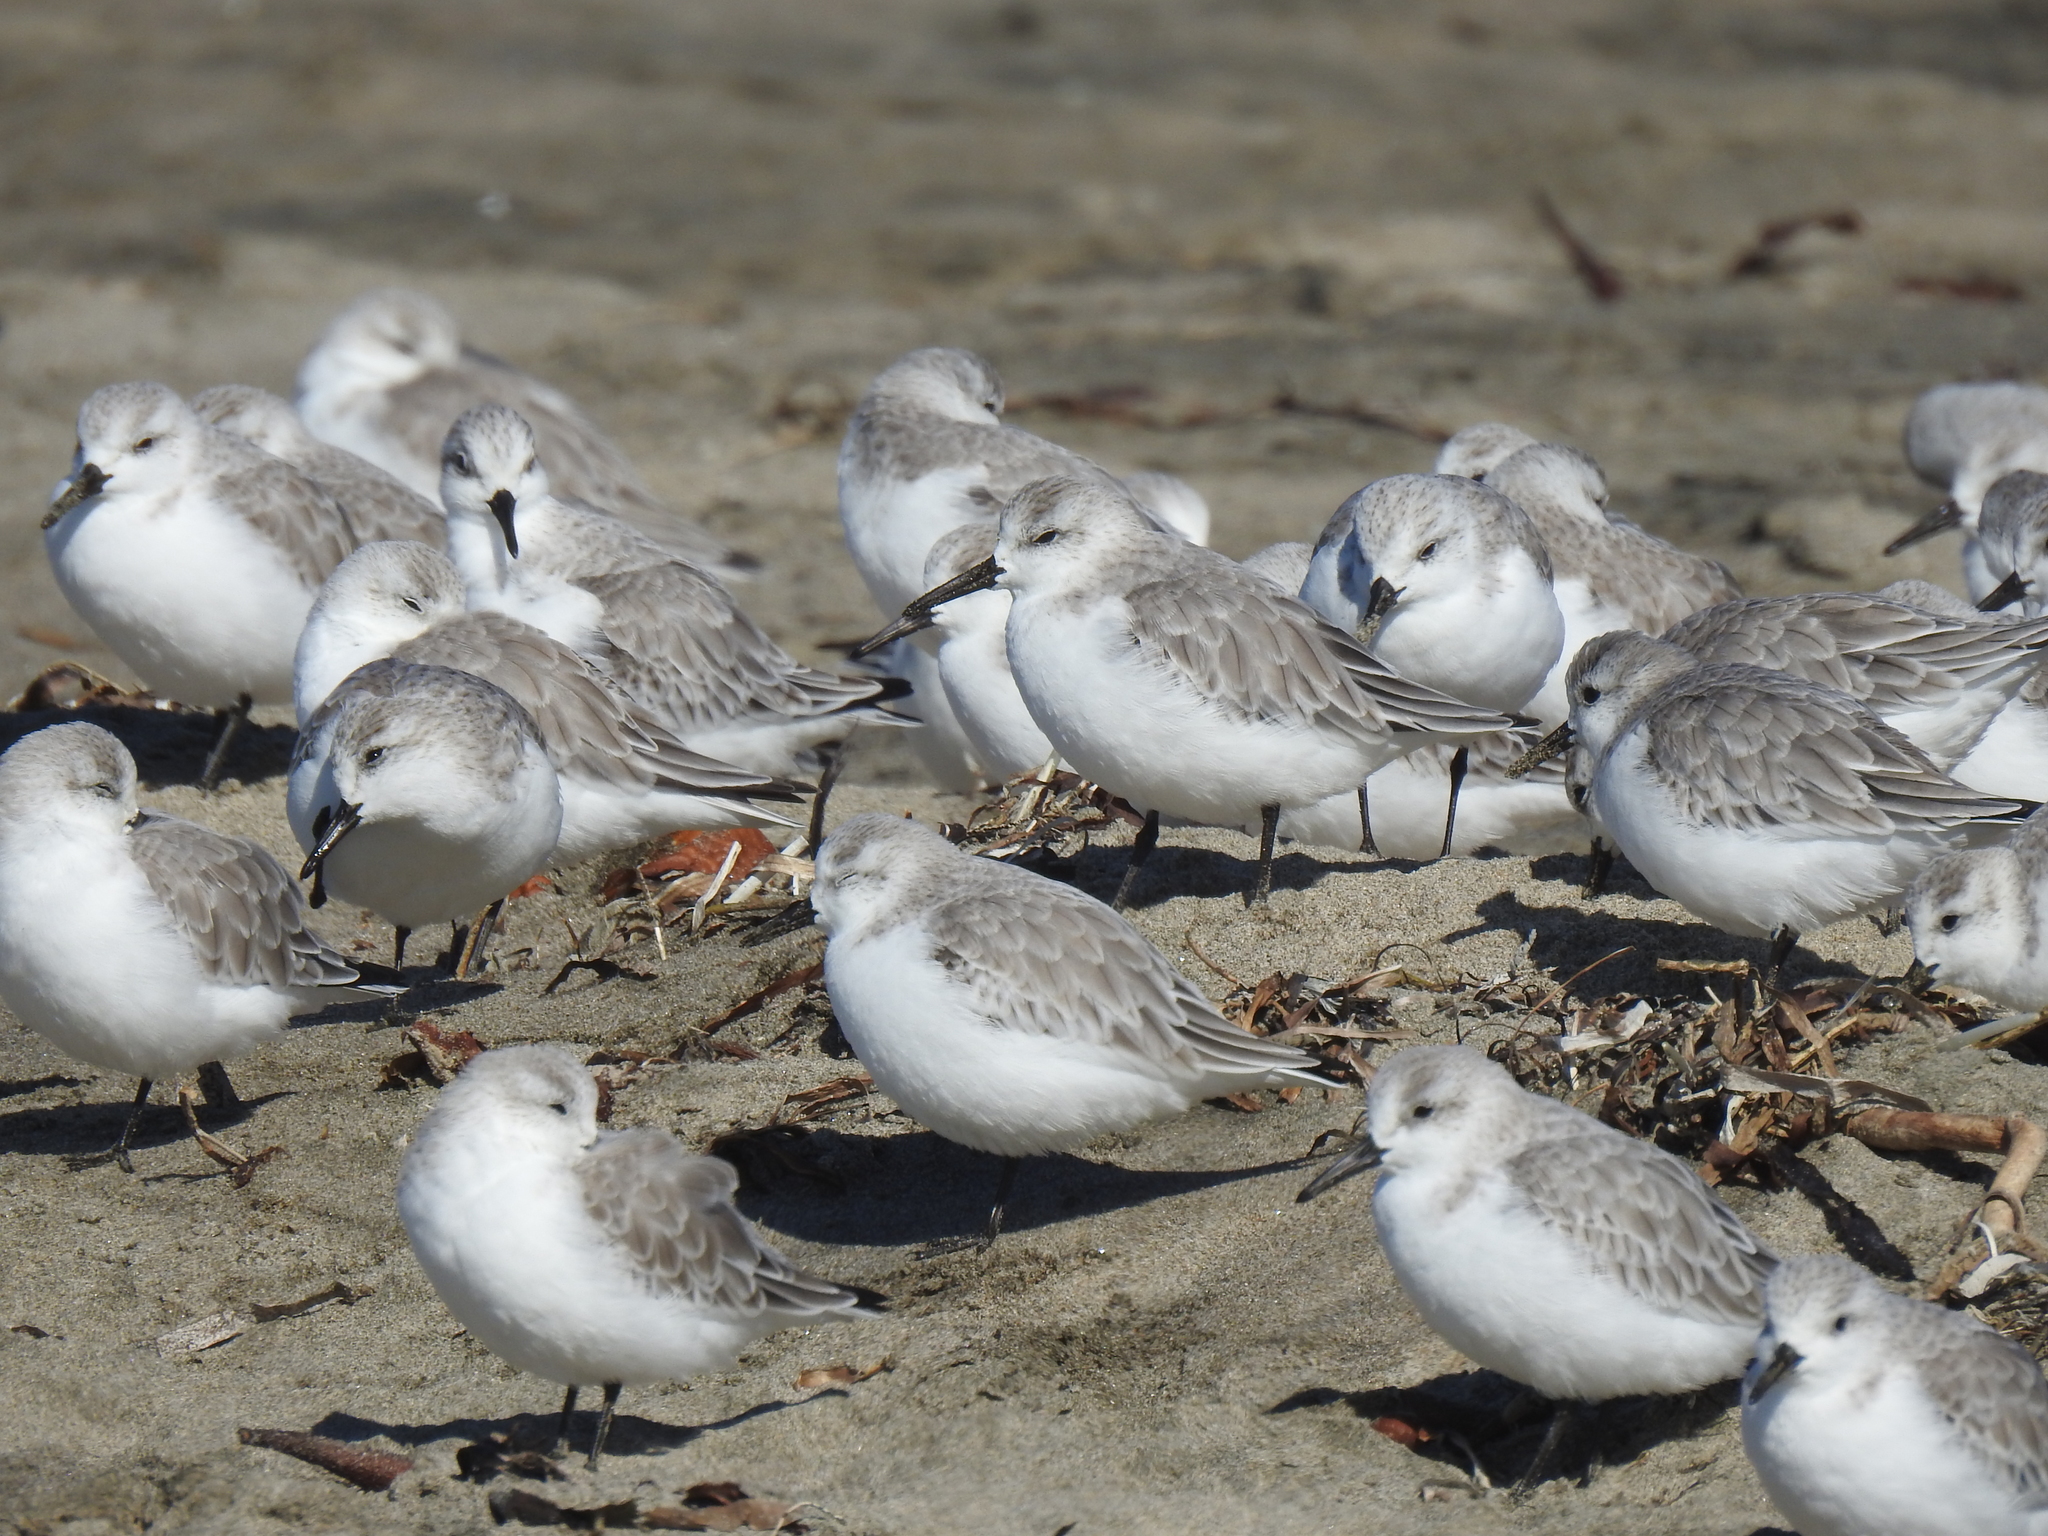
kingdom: Animalia
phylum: Chordata
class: Aves
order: Charadriiformes
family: Scolopacidae
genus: Calidris
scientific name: Calidris alba
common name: Sanderling
